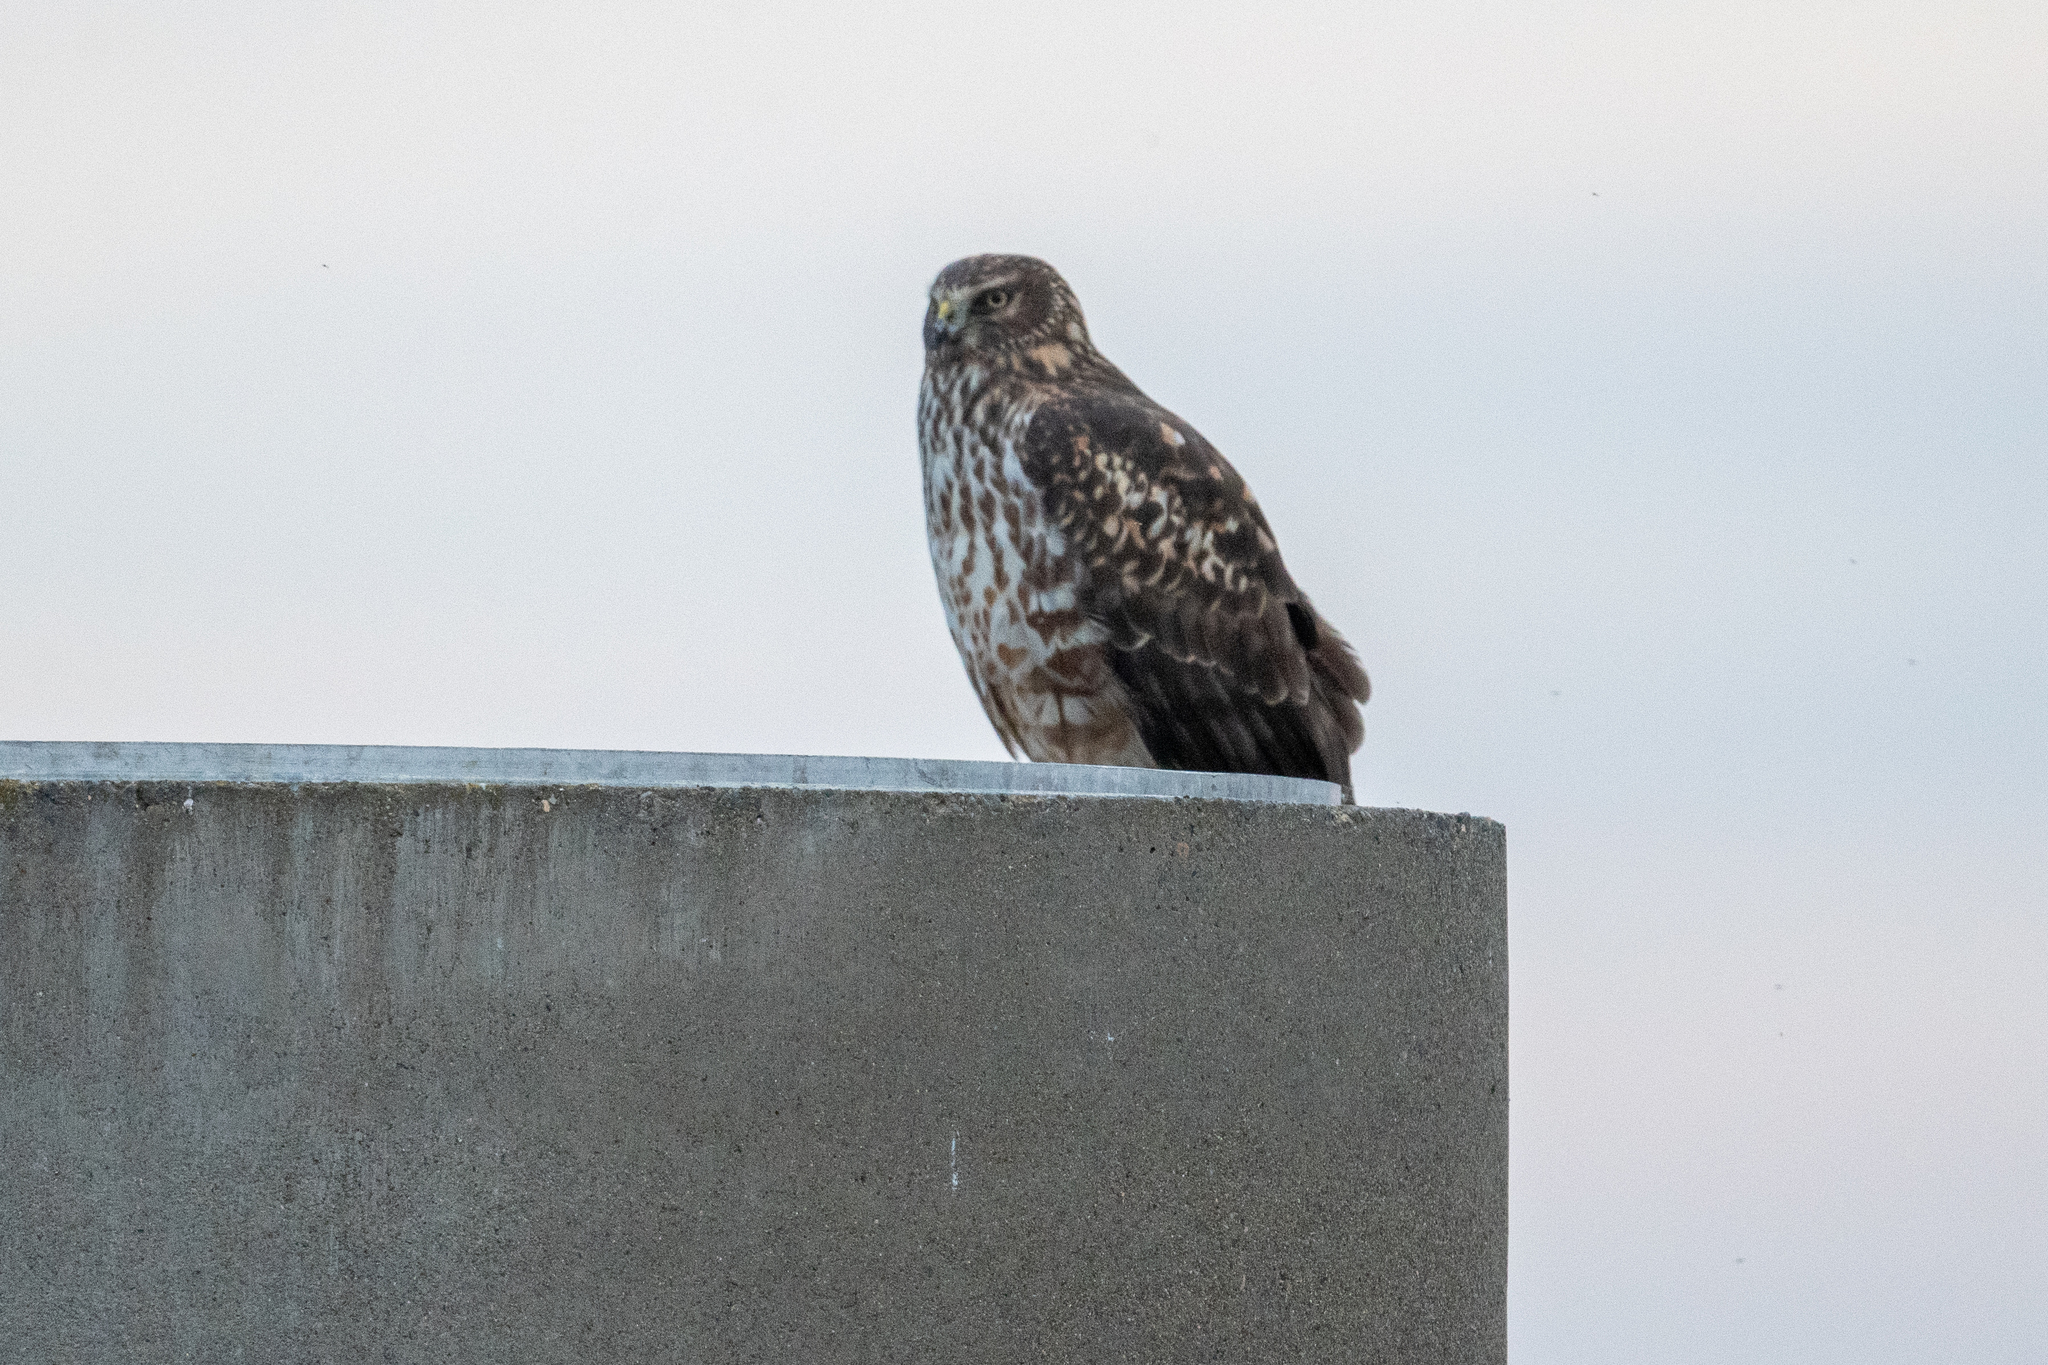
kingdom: Animalia
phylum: Chordata
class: Aves
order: Accipitriformes
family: Accipitridae
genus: Circus
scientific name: Circus cyaneus
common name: Hen harrier
